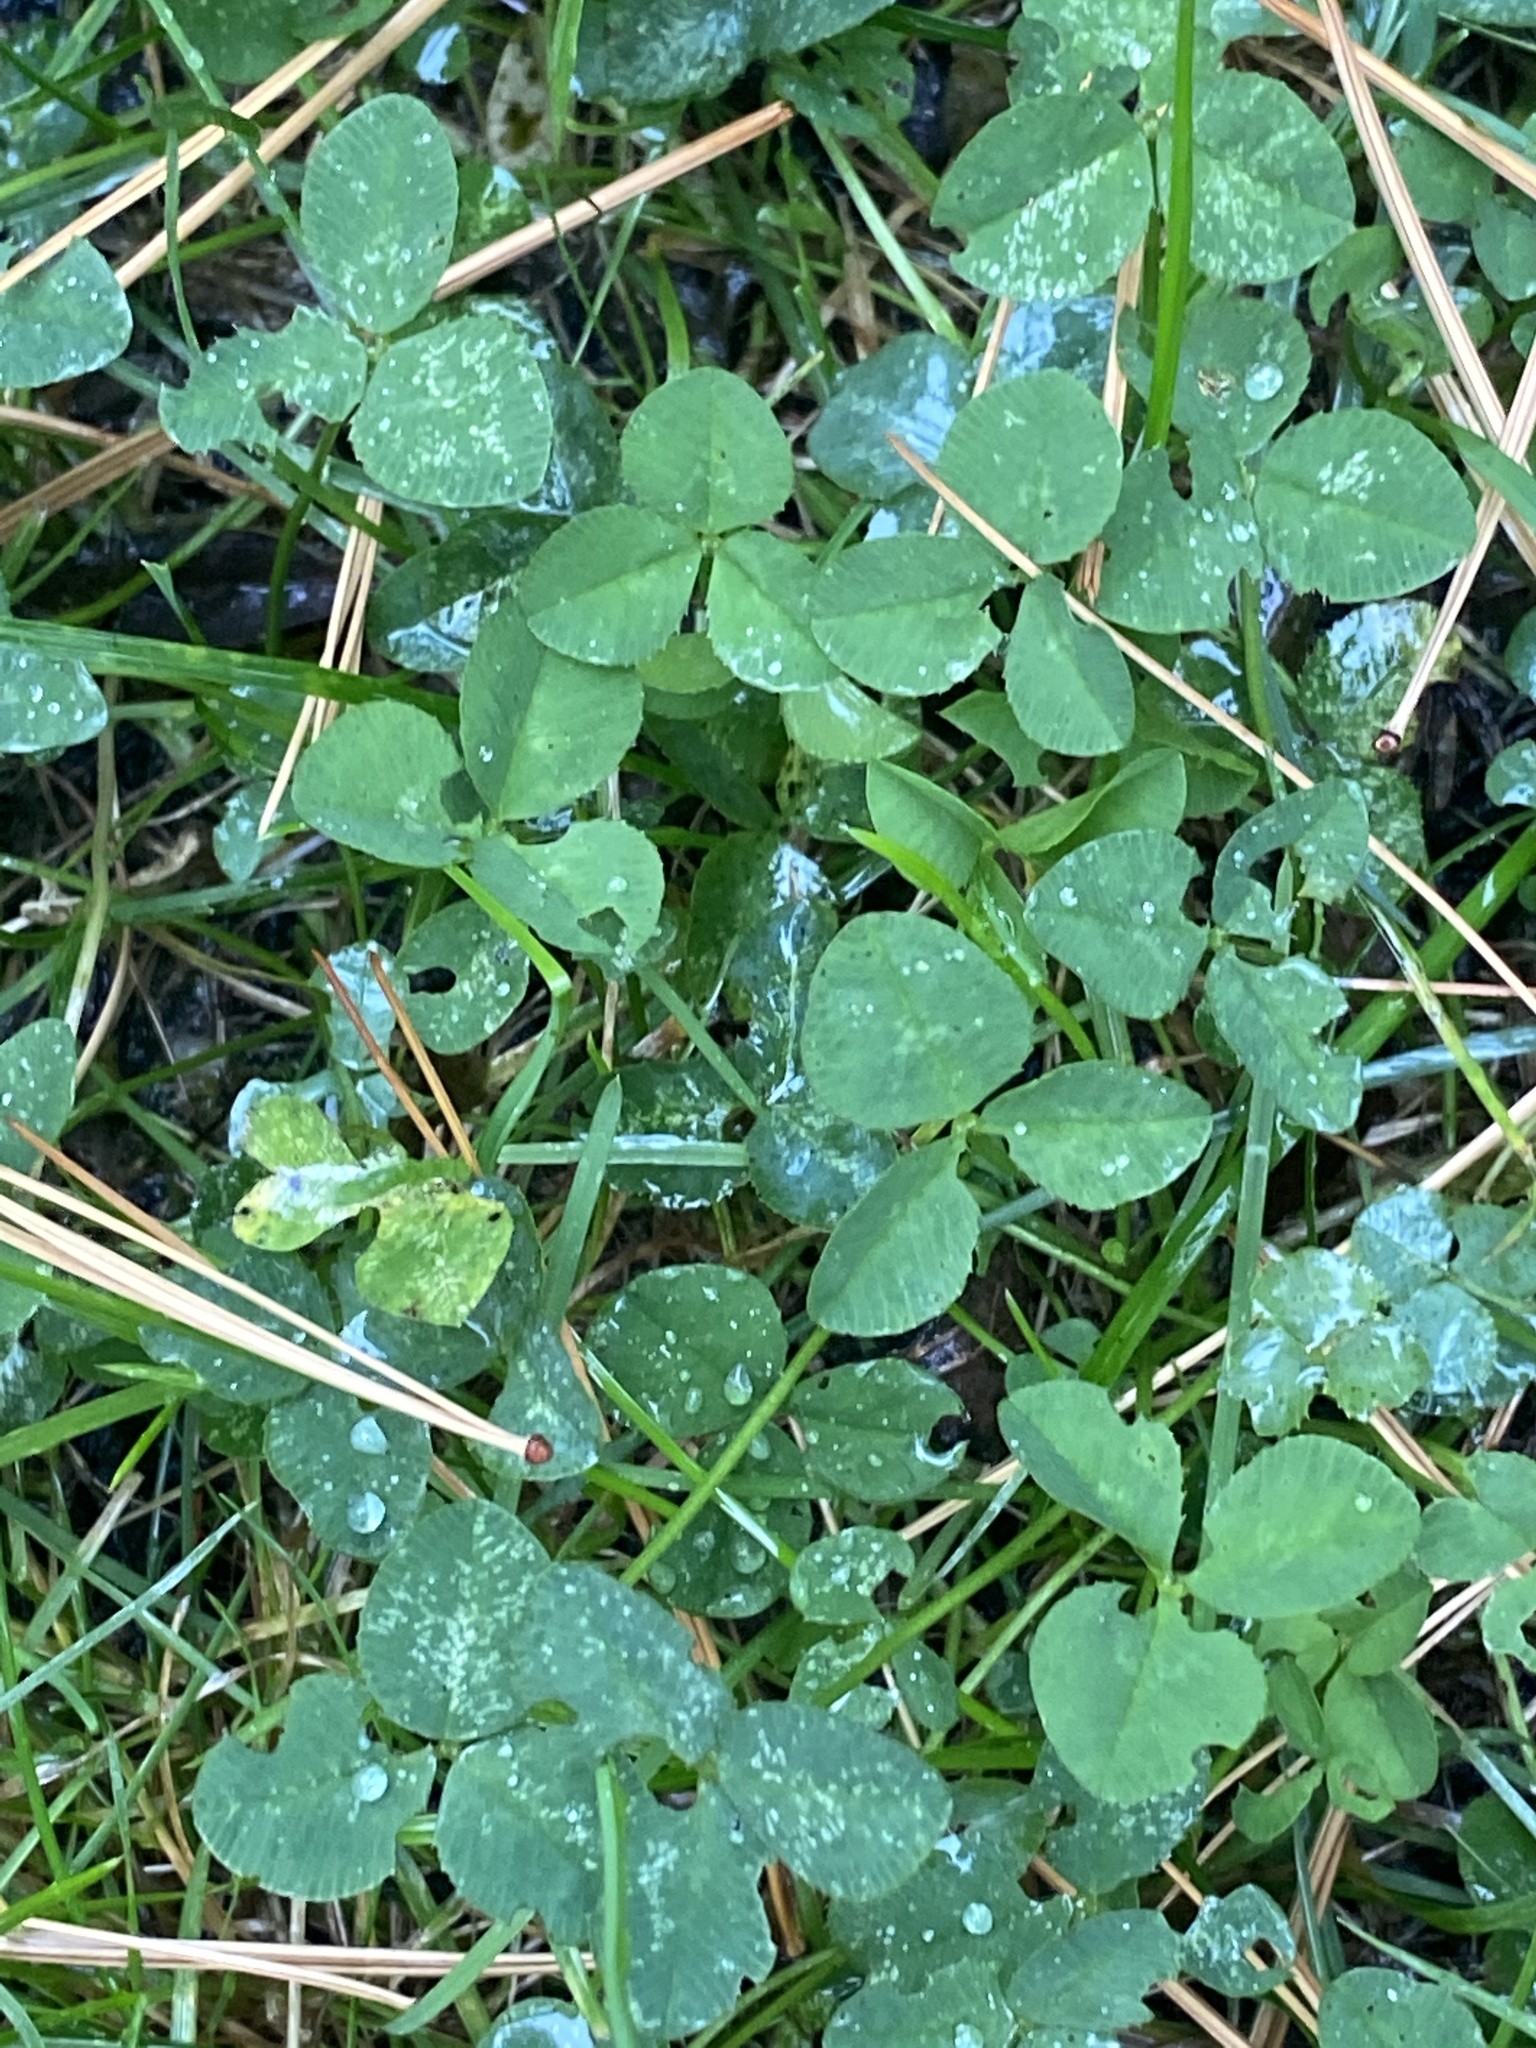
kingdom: Plantae
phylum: Tracheophyta
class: Magnoliopsida
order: Fabales
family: Fabaceae
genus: Trifolium
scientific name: Trifolium repens
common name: White clover
